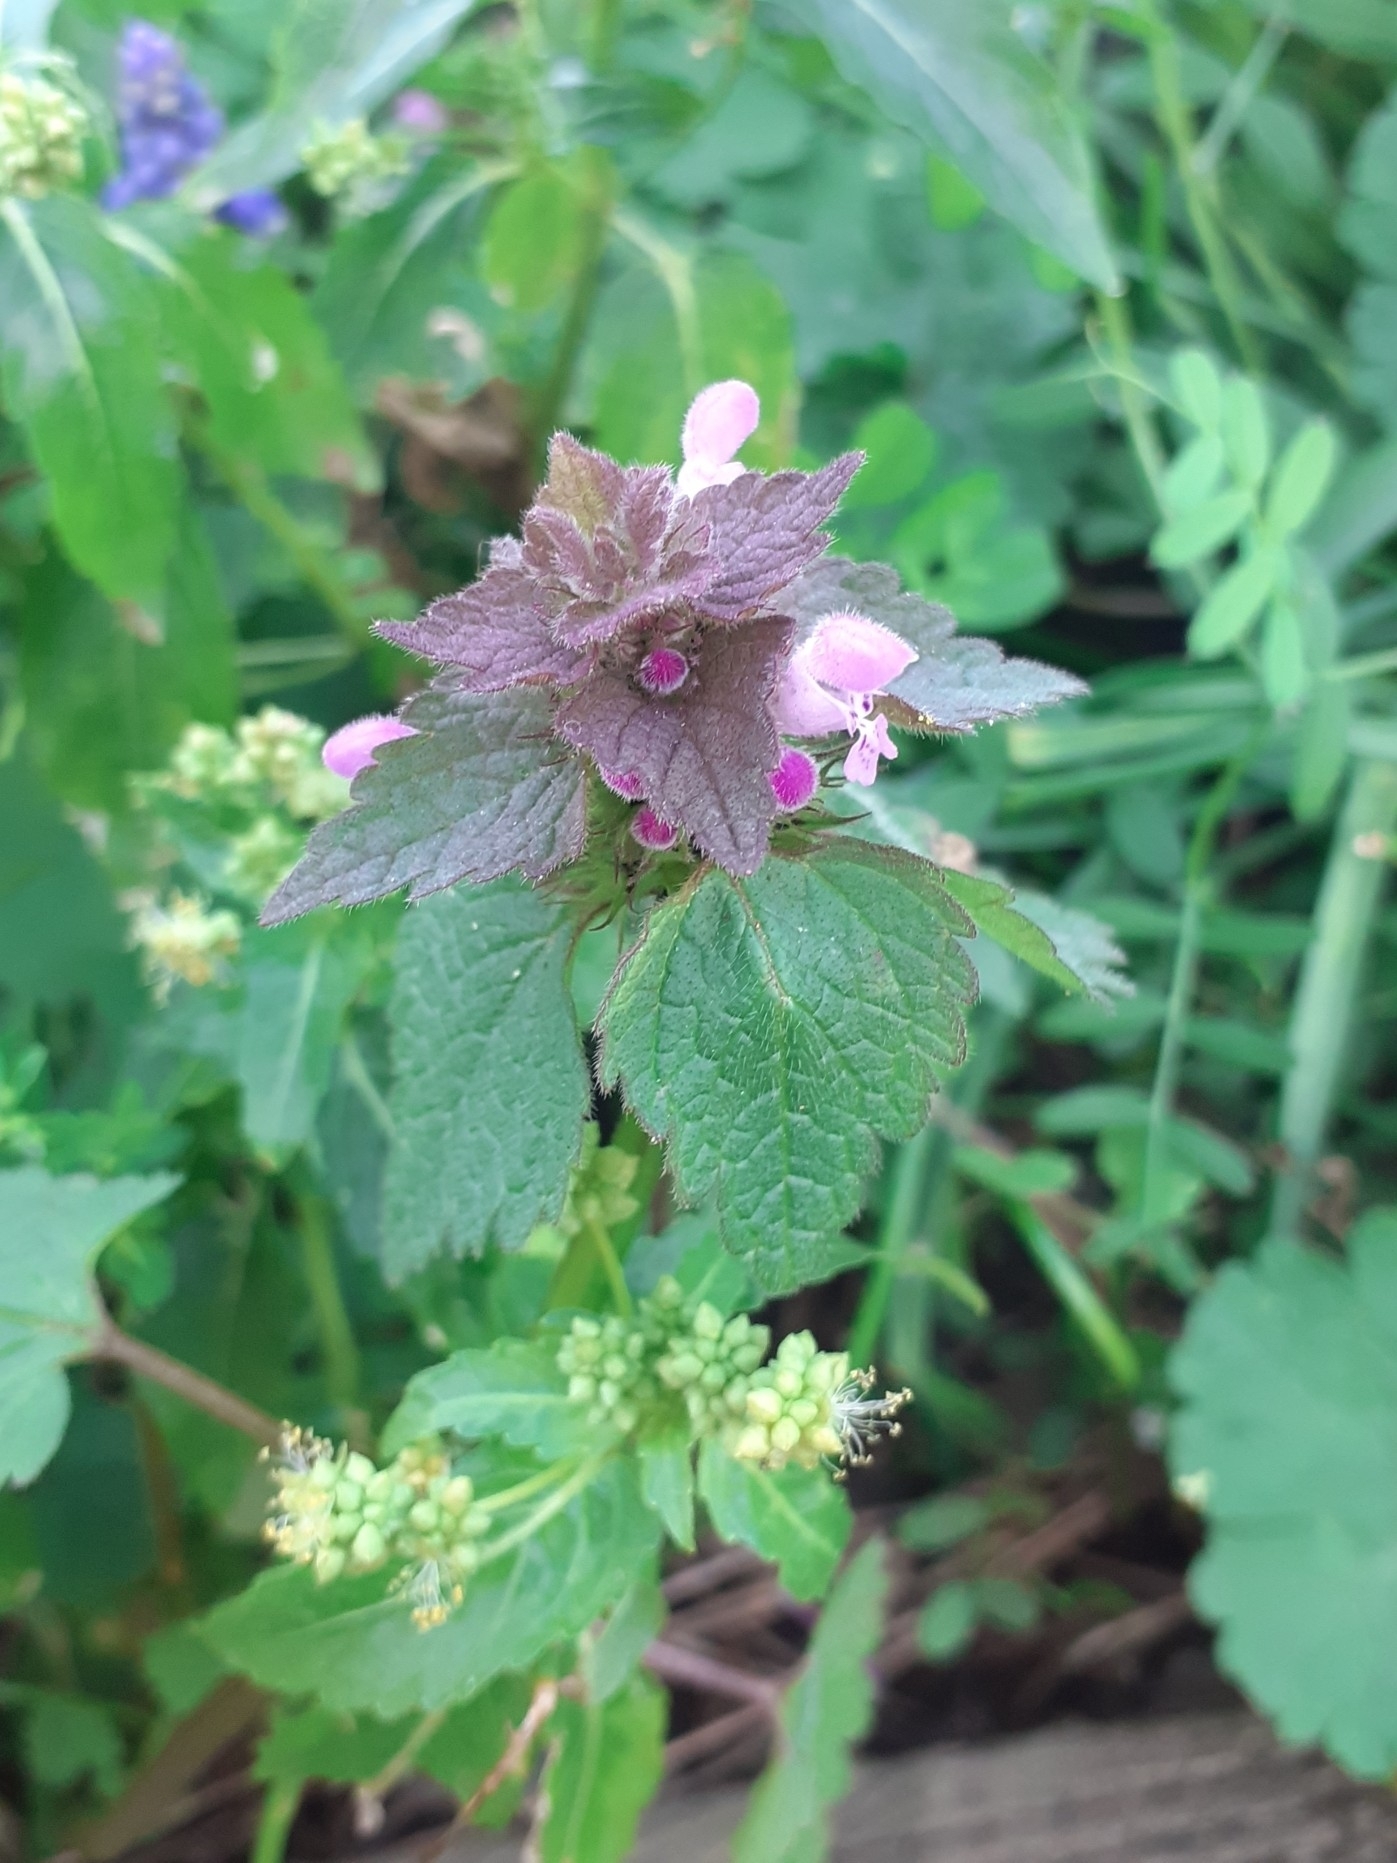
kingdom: Plantae
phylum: Tracheophyta
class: Magnoliopsida
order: Lamiales
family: Lamiaceae
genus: Lamium
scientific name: Lamium purpureum
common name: Red dead-nettle
